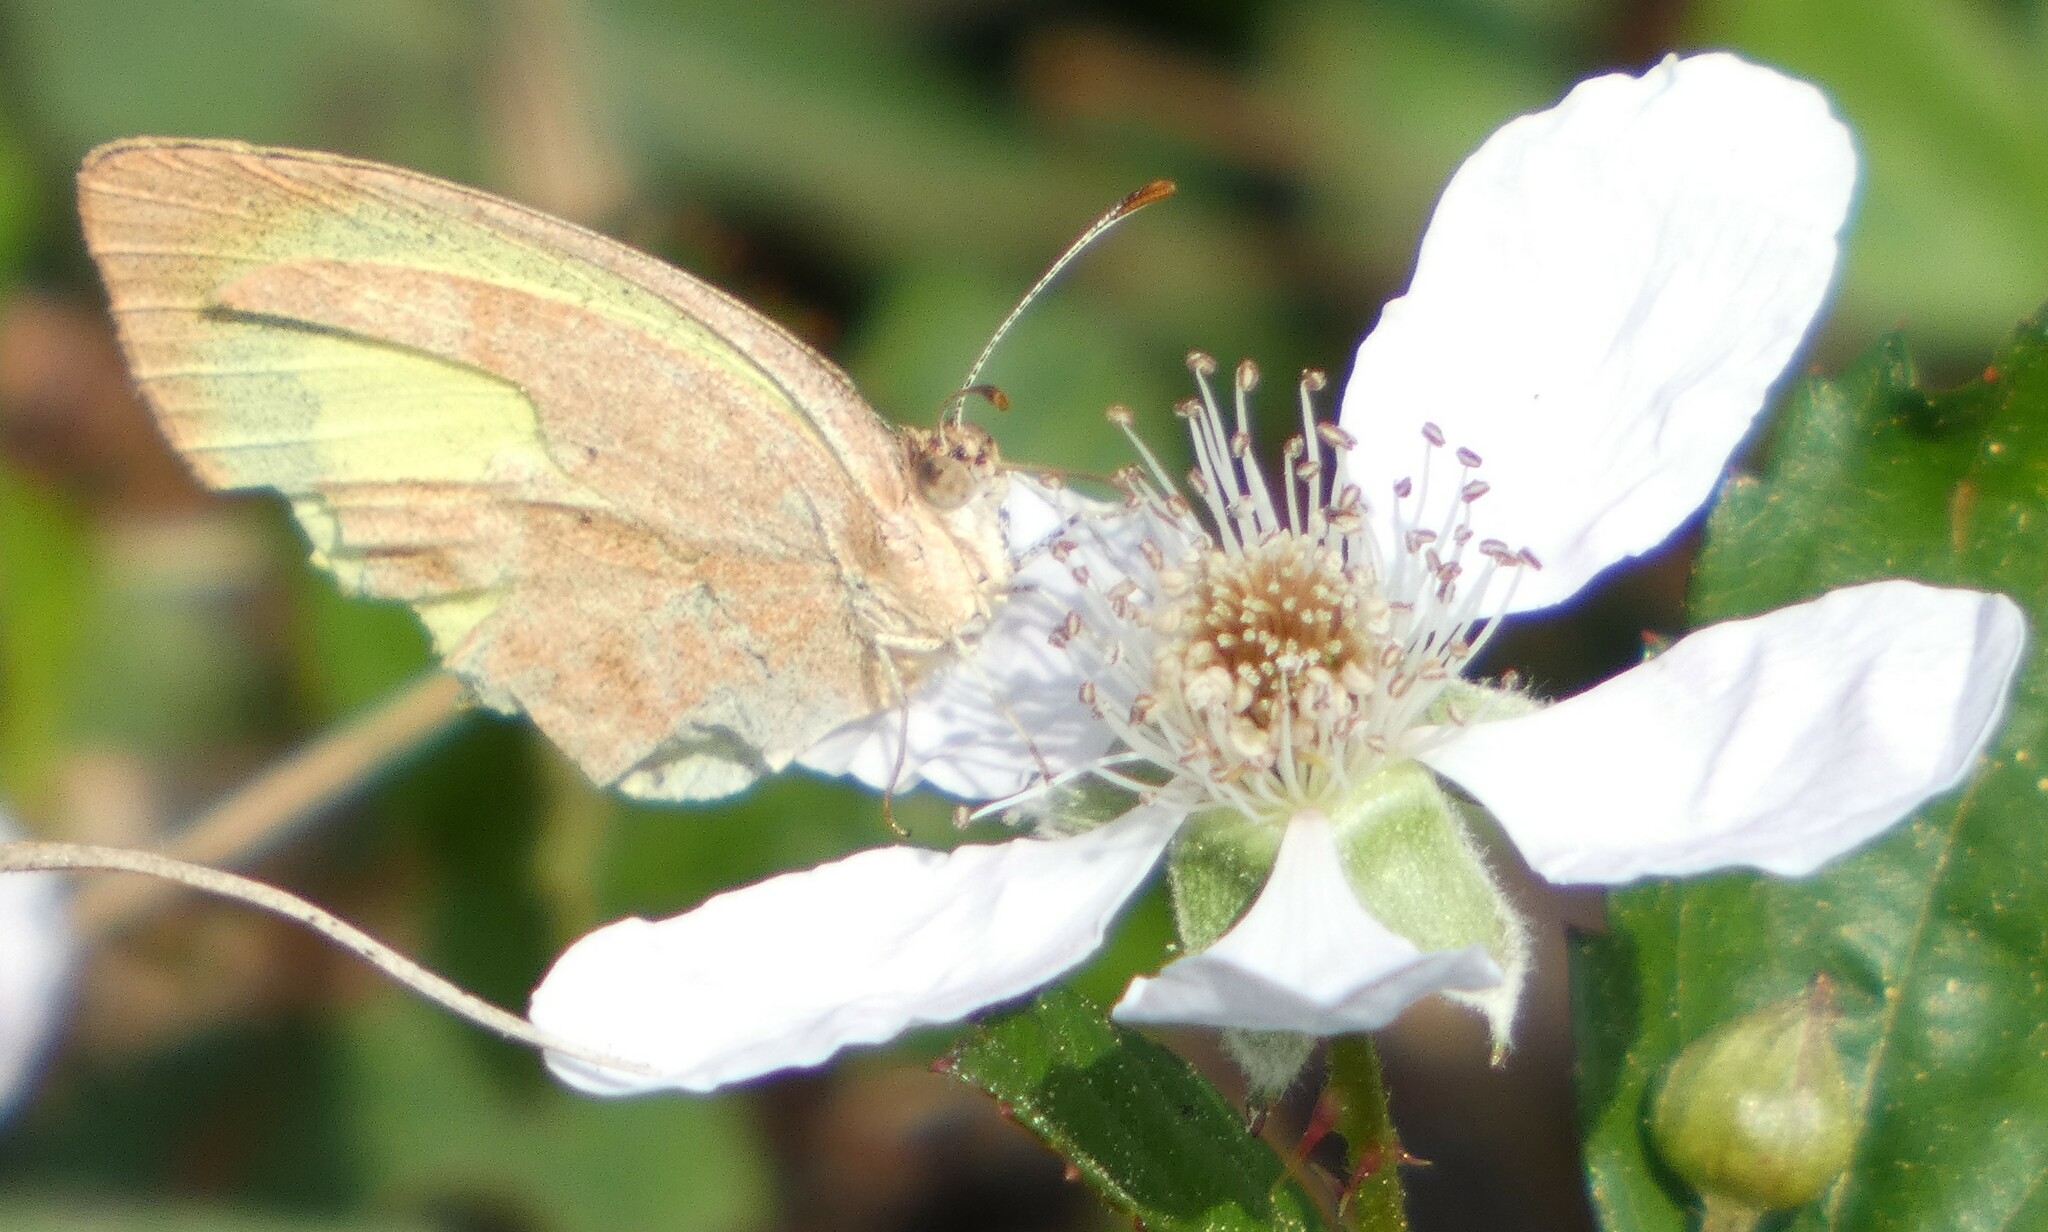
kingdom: Animalia
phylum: Arthropoda
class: Insecta
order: Lepidoptera
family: Pieridae
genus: Eurema
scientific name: Eurema daira
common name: Barred sulphur
